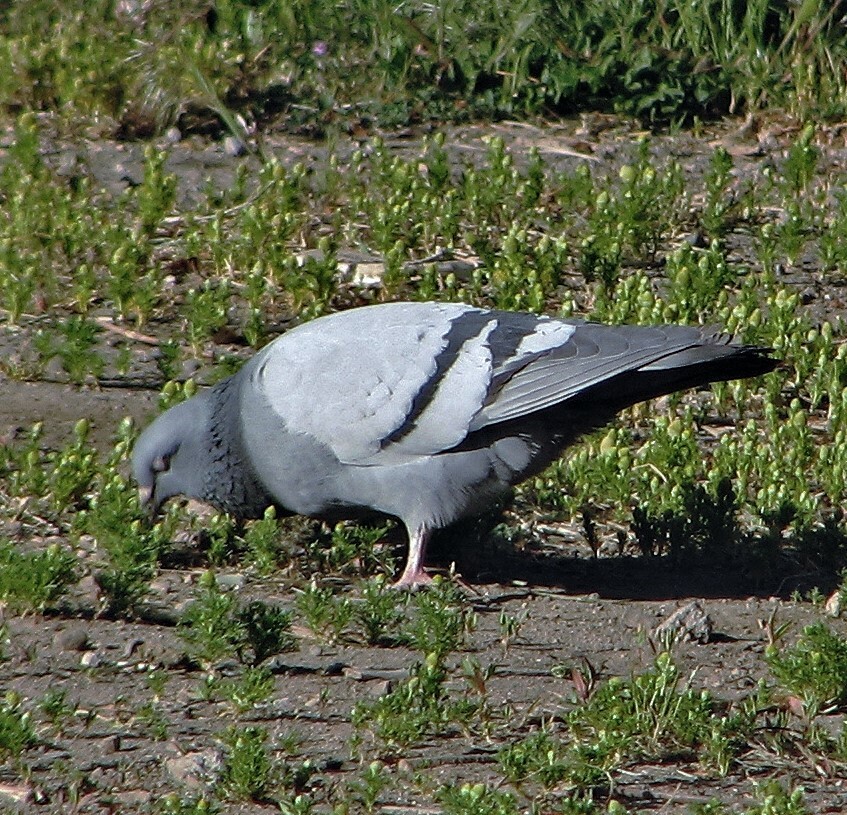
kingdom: Animalia
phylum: Chordata
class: Aves
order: Columbiformes
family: Columbidae
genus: Columba
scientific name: Columba livia
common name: Rock pigeon
